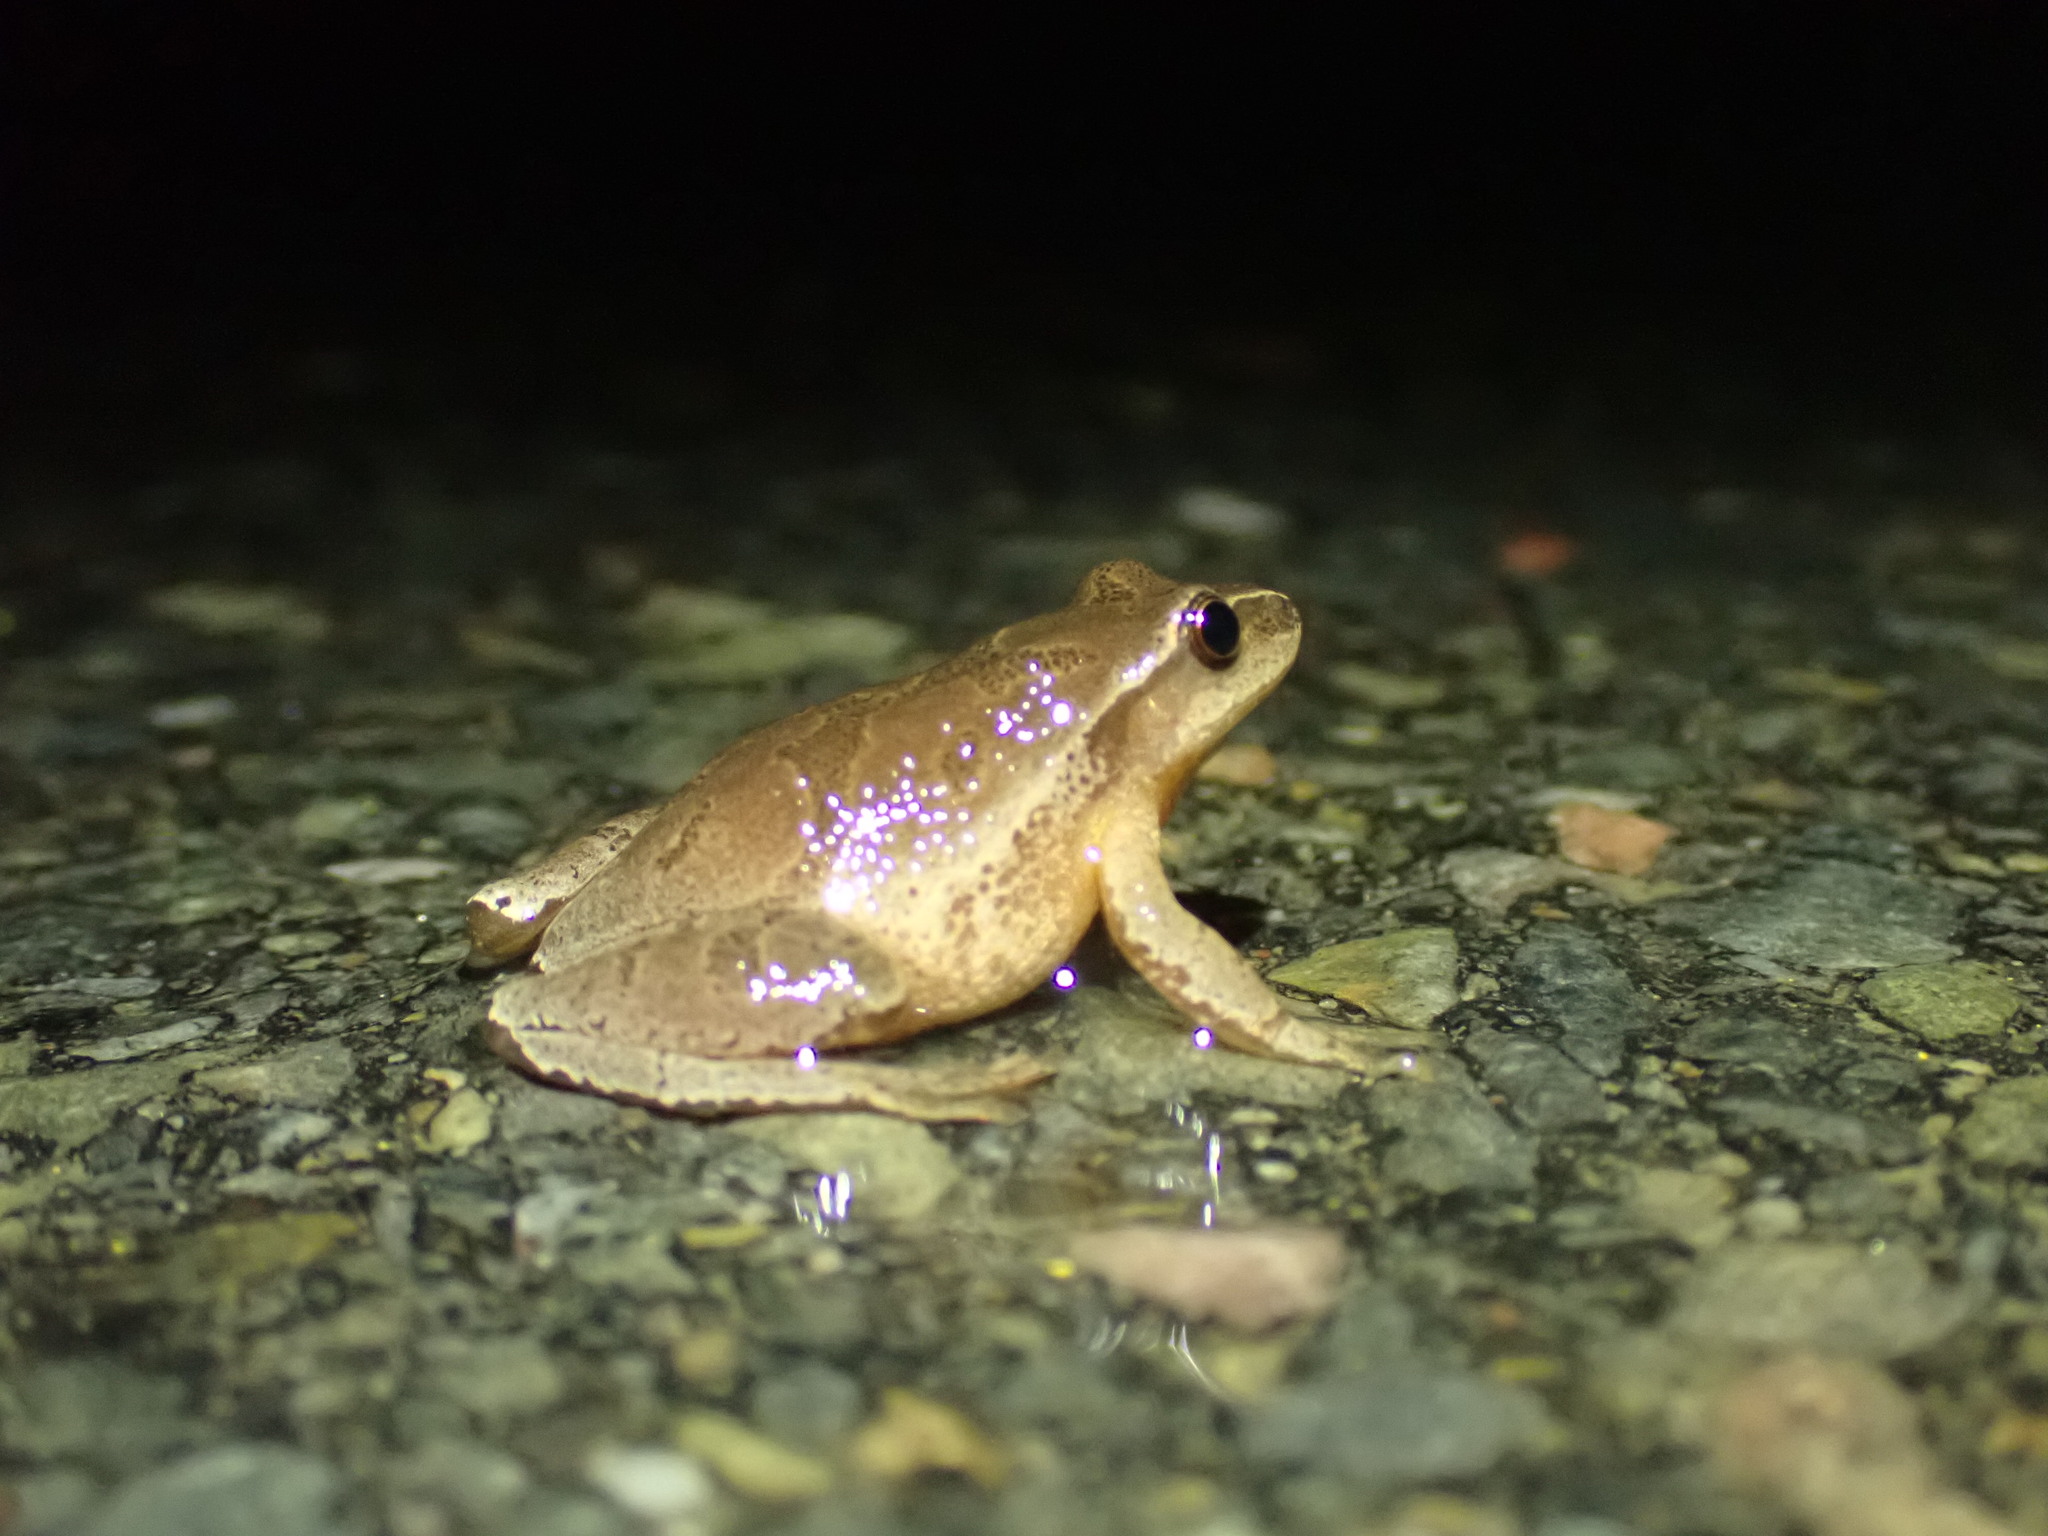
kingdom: Animalia
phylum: Chordata
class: Amphibia
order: Anura
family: Hylidae
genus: Pseudacris
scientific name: Pseudacris crucifer
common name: Spring peeper
